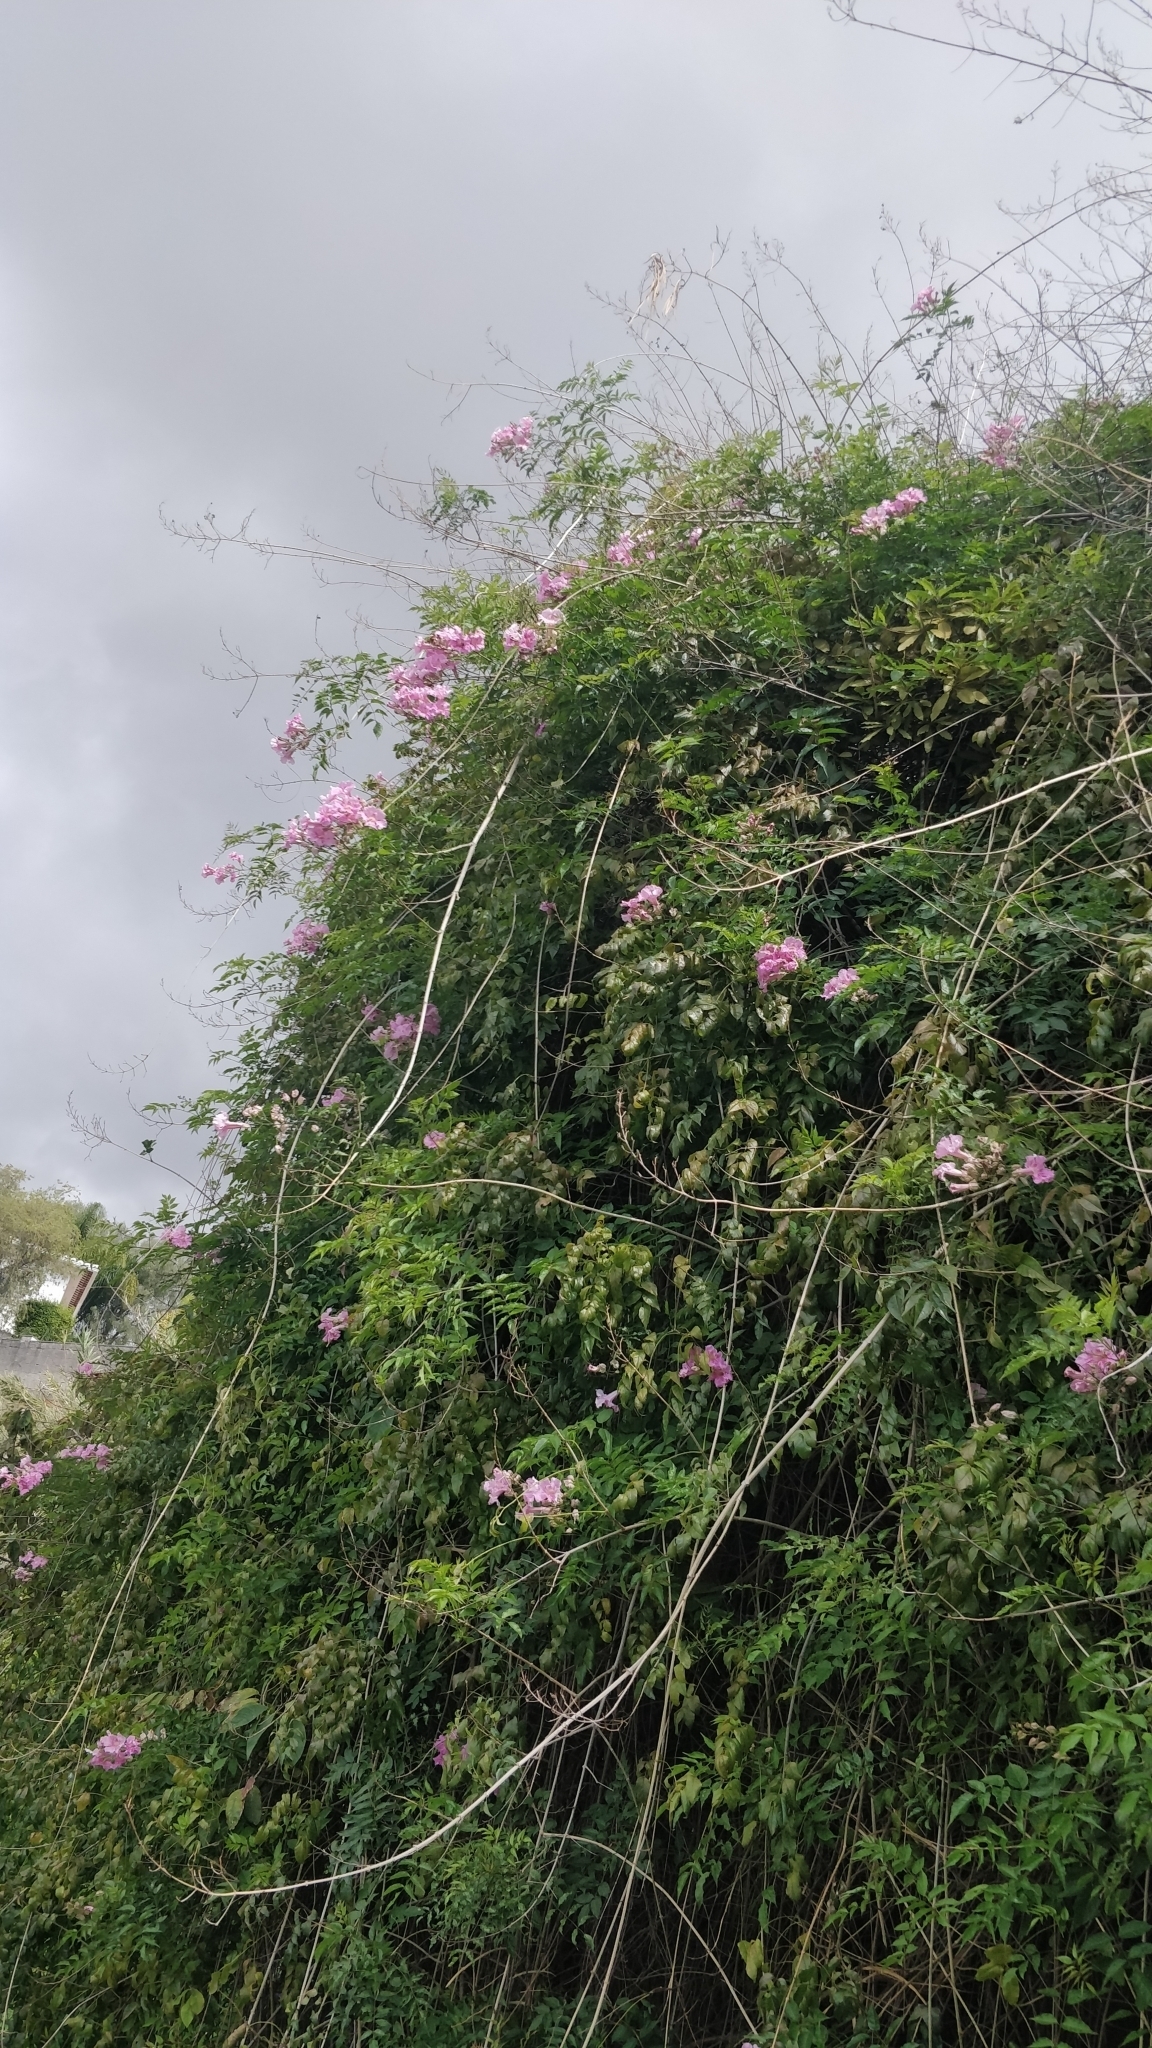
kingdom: Plantae
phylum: Tracheophyta
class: Magnoliopsida
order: Lamiales
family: Bignoniaceae
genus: Podranea
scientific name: Podranea ricasoliana
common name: Zimbabwe creeper
